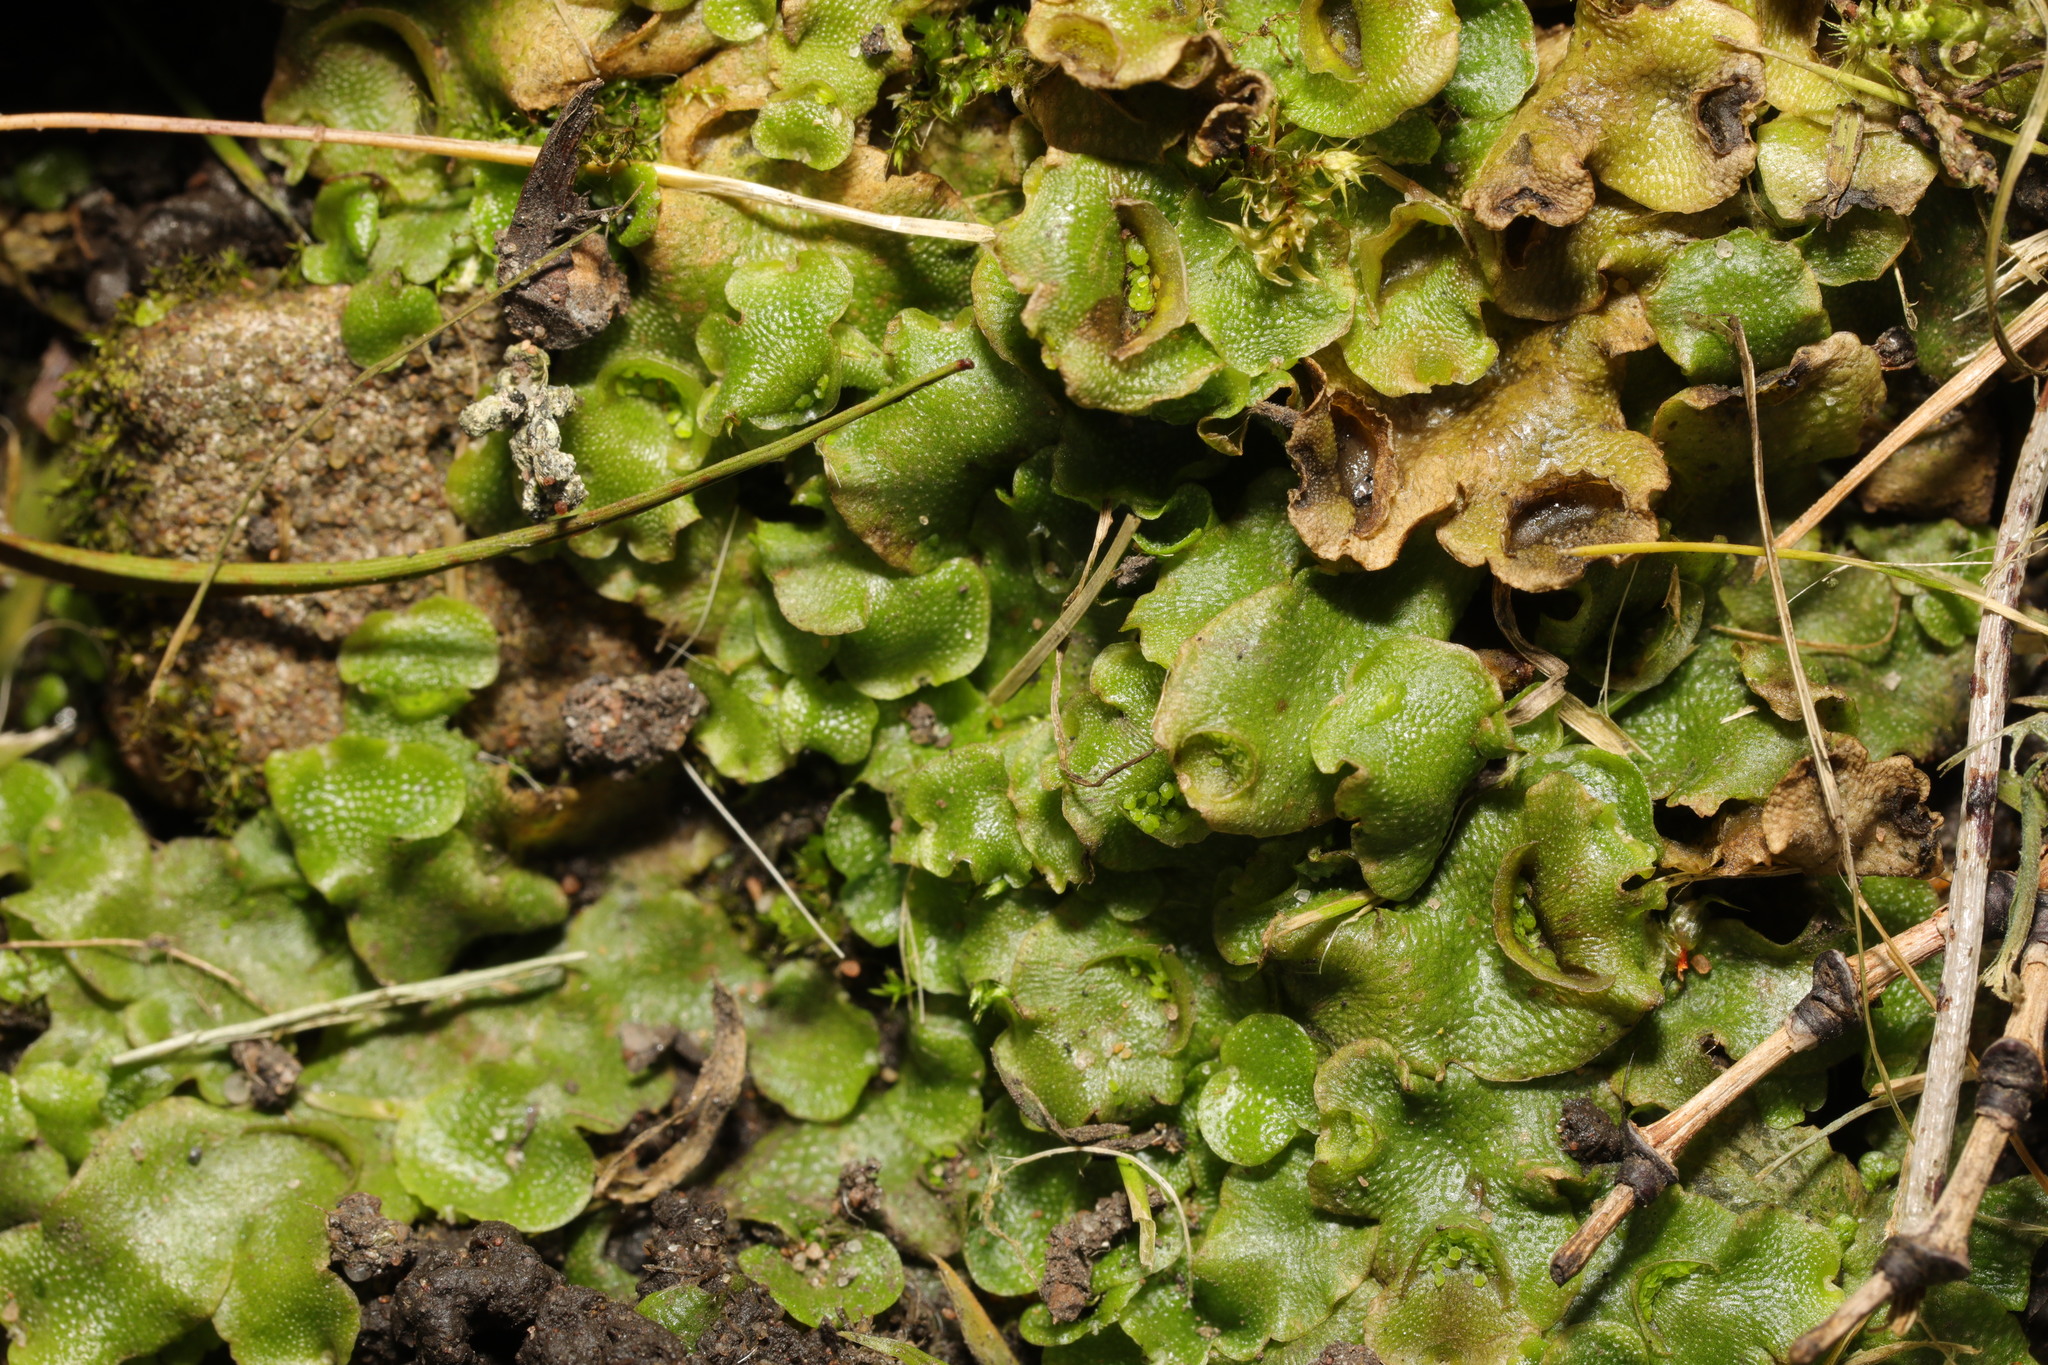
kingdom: Plantae
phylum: Marchantiophyta
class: Marchantiopsida
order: Lunulariales
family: Lunulariaceae
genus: Lunularia
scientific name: Lunularia cruciata
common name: Crescent-cup liverwort
